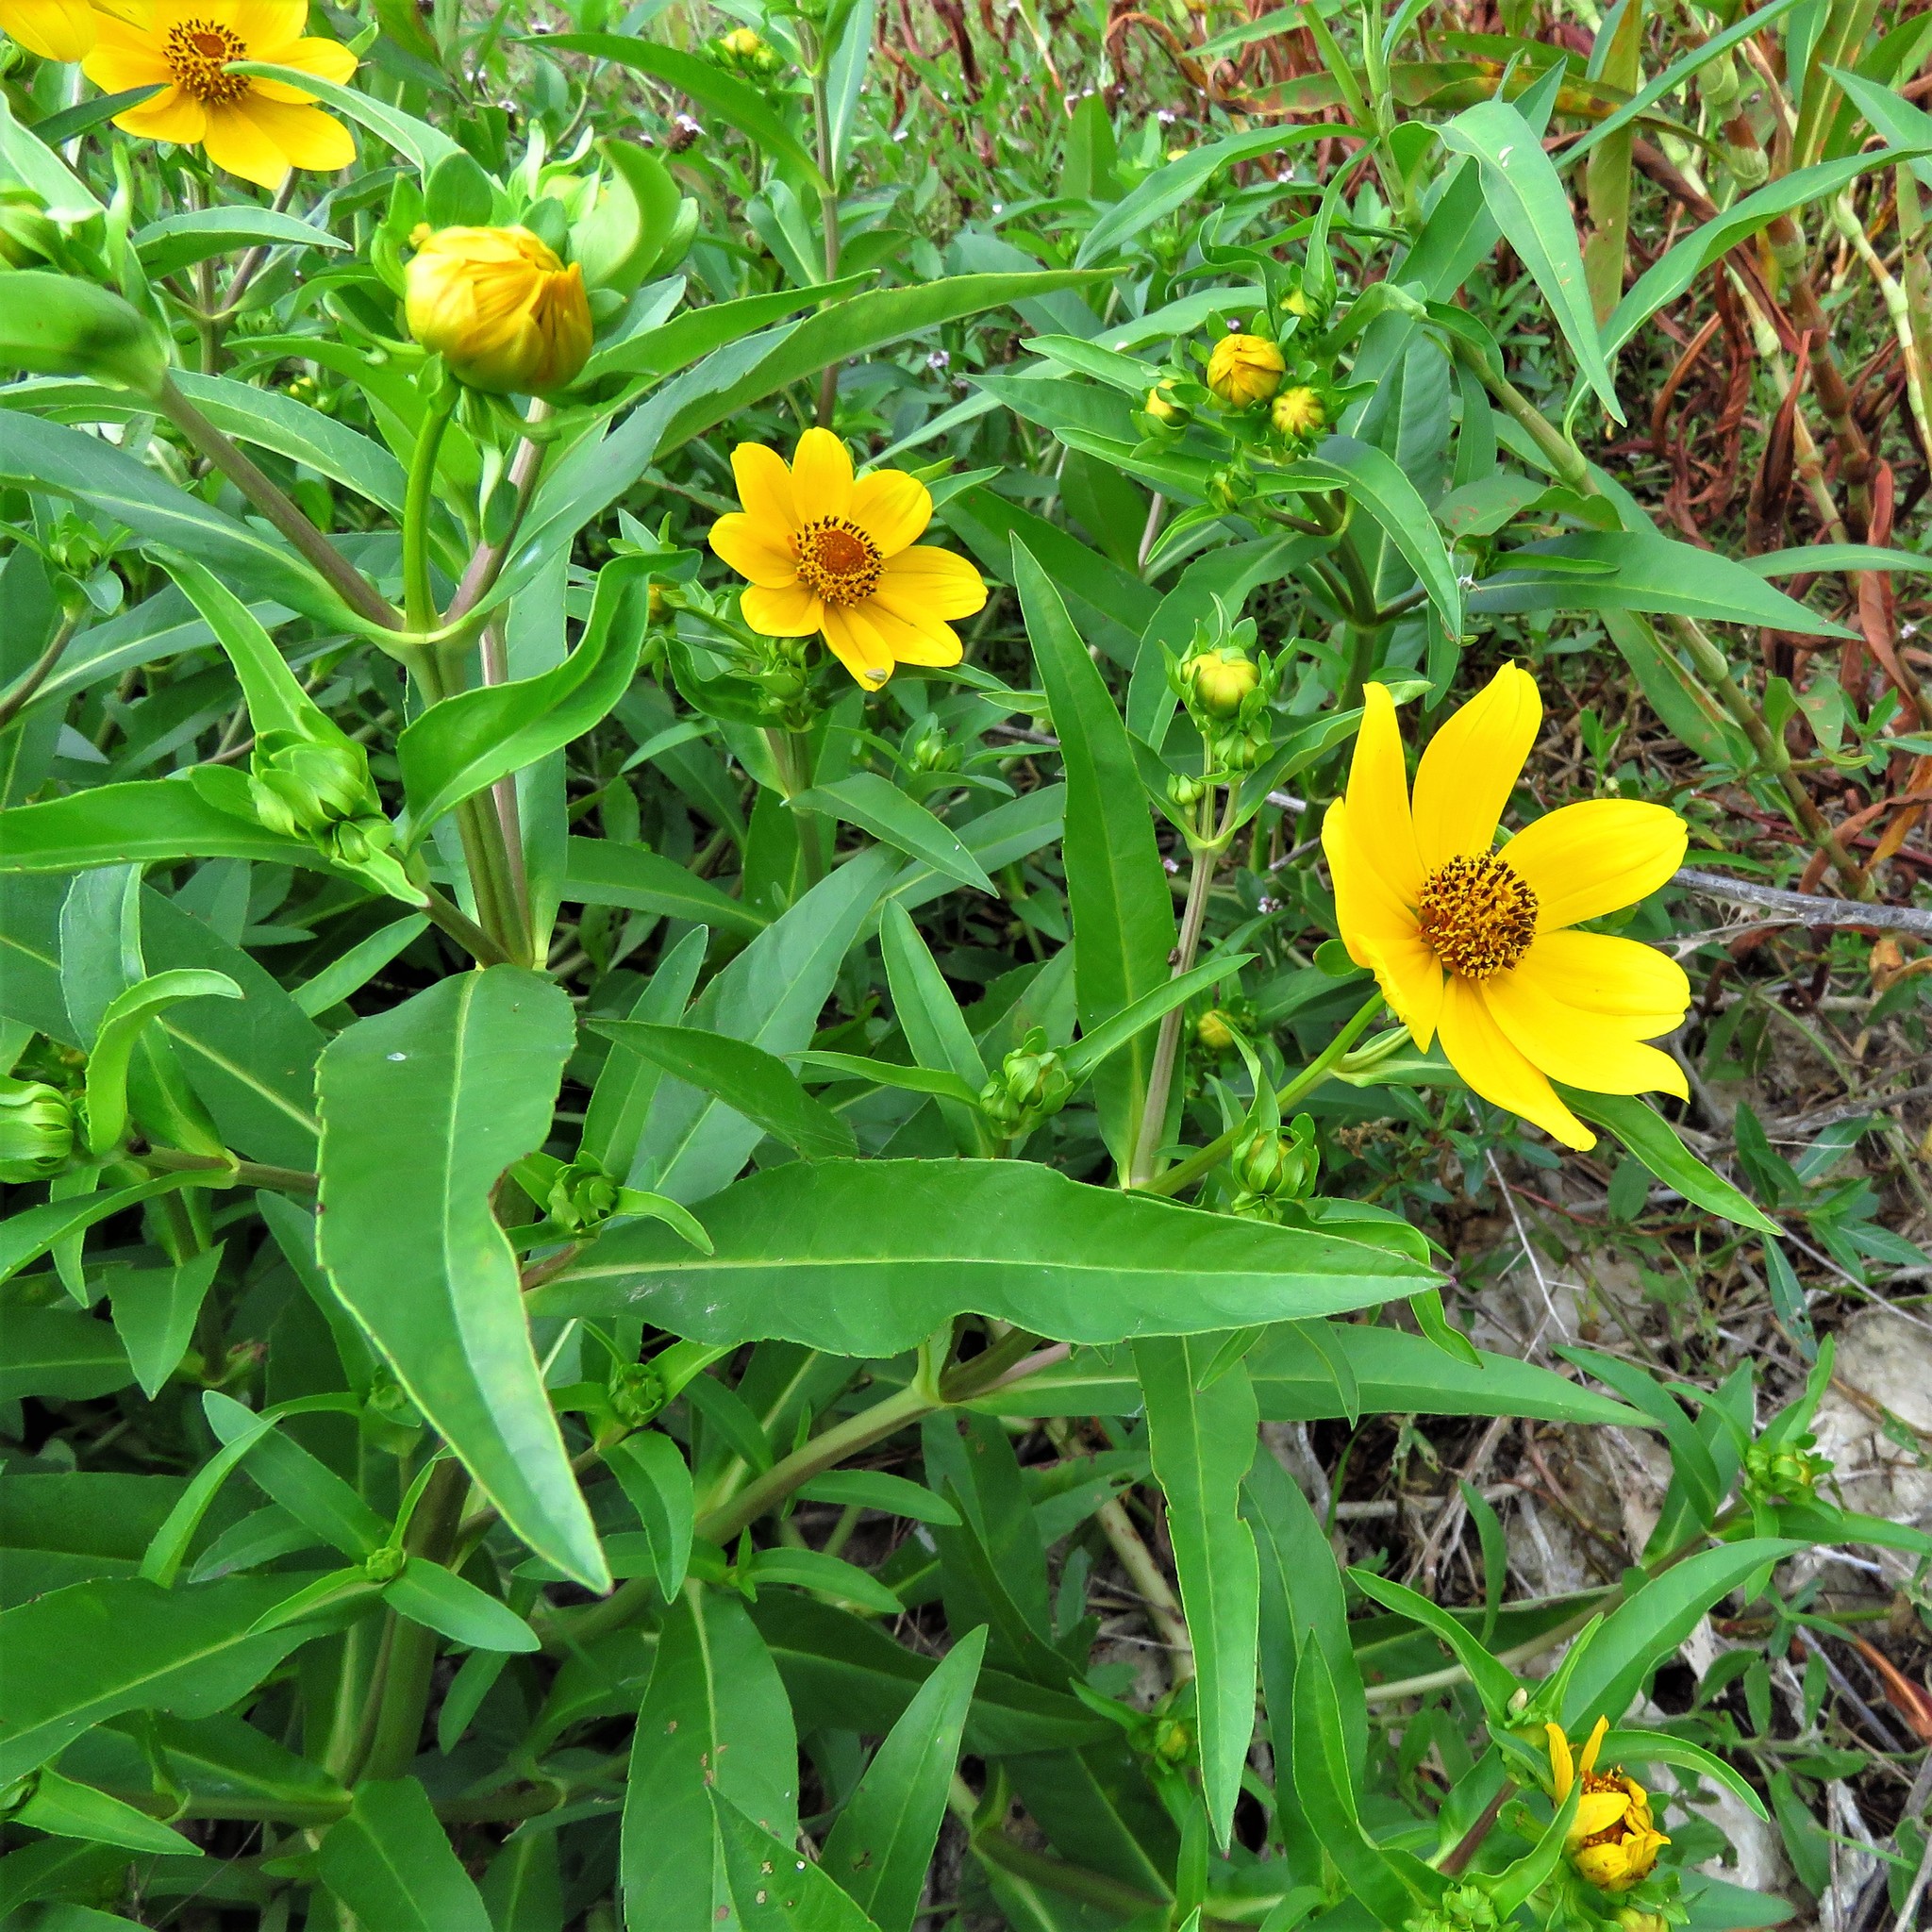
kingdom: Plantae
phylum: Tracheophyta
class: Magnoliopsida
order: Asterales
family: Asteraceae
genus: Bidens
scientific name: Bidens laevis
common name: Larger bur-marigold
